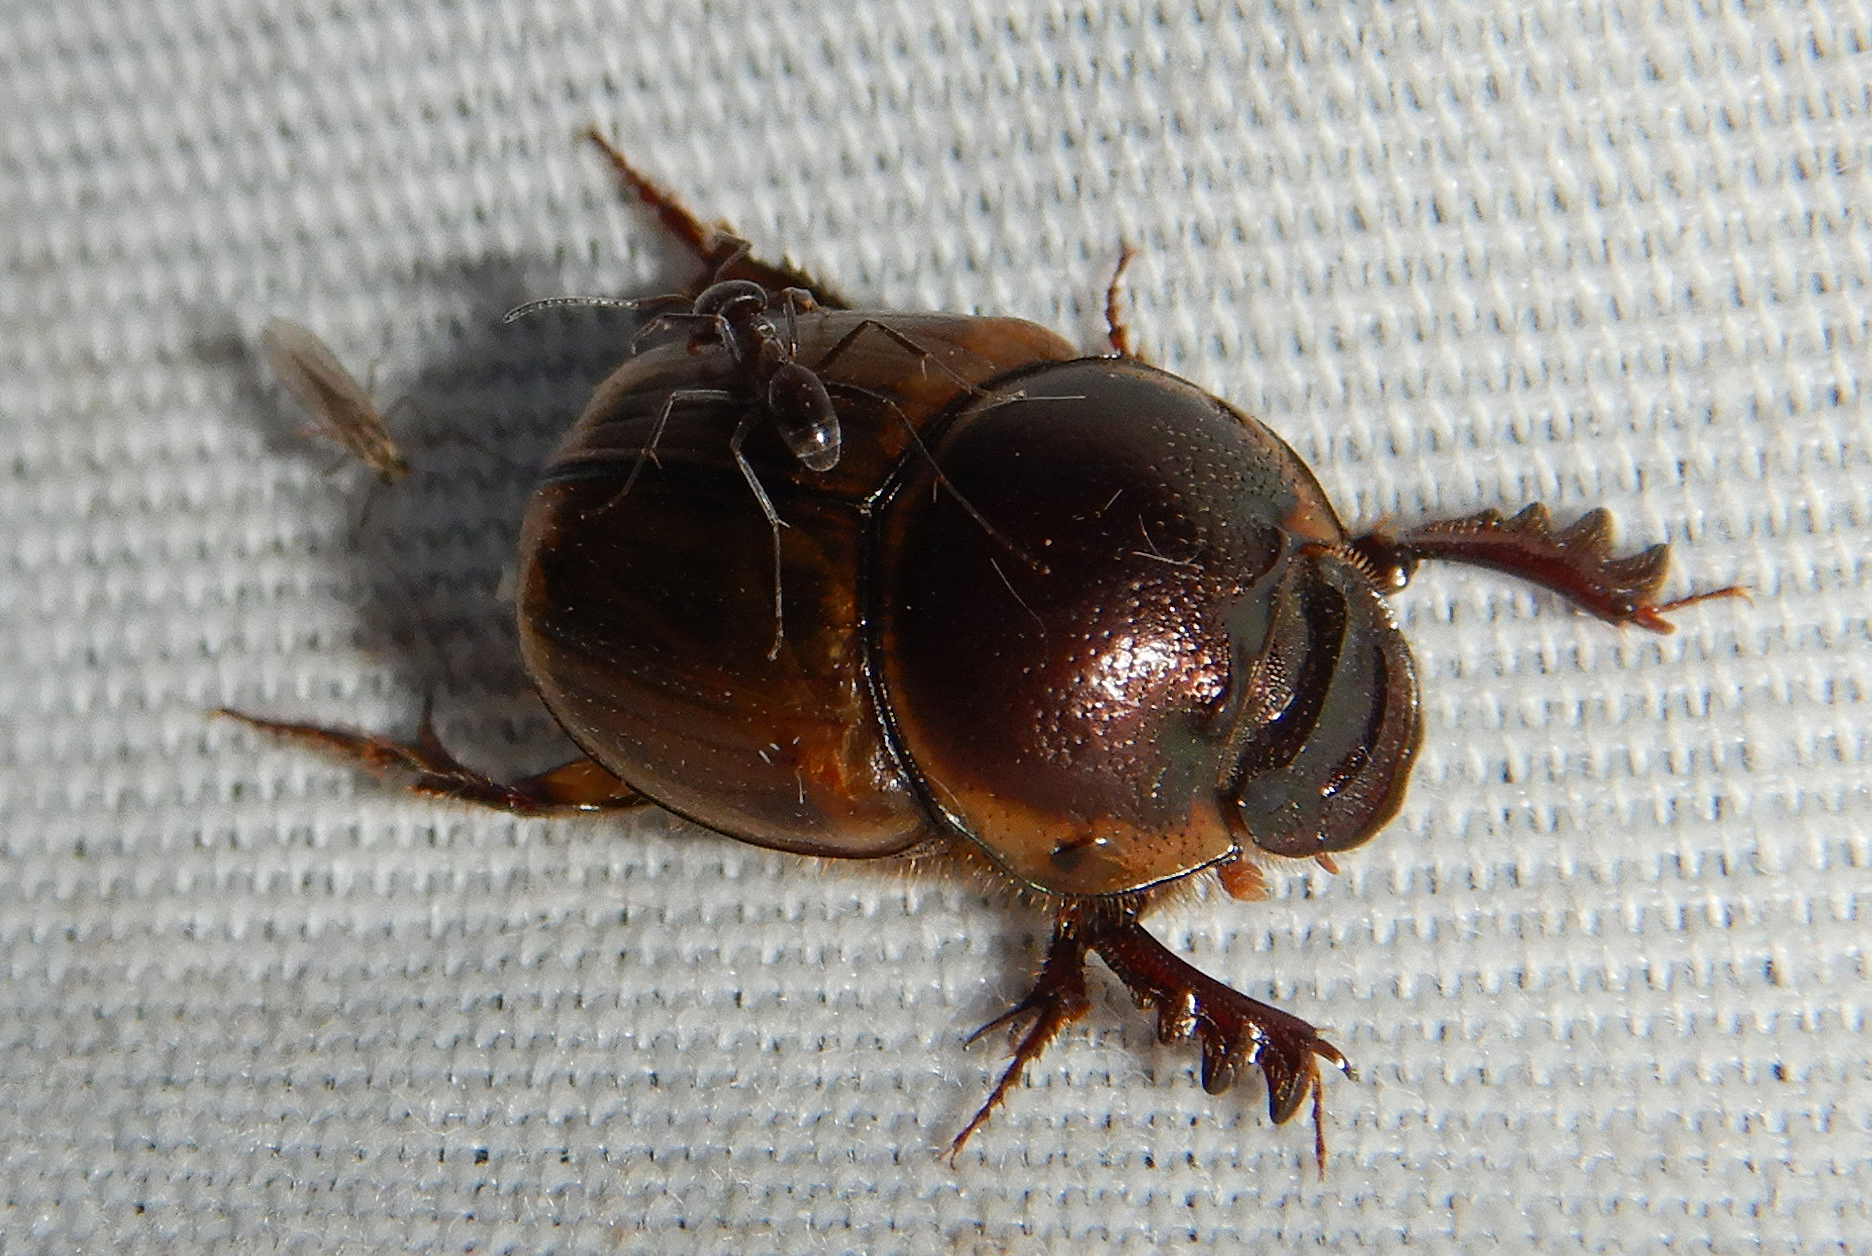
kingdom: Animalia
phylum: Arthropoda
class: Insecta
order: Coleoptera
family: Scarabaeidae
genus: Digitonthophagus
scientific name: Digitonthophagus gazella
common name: Brown dung beetle
